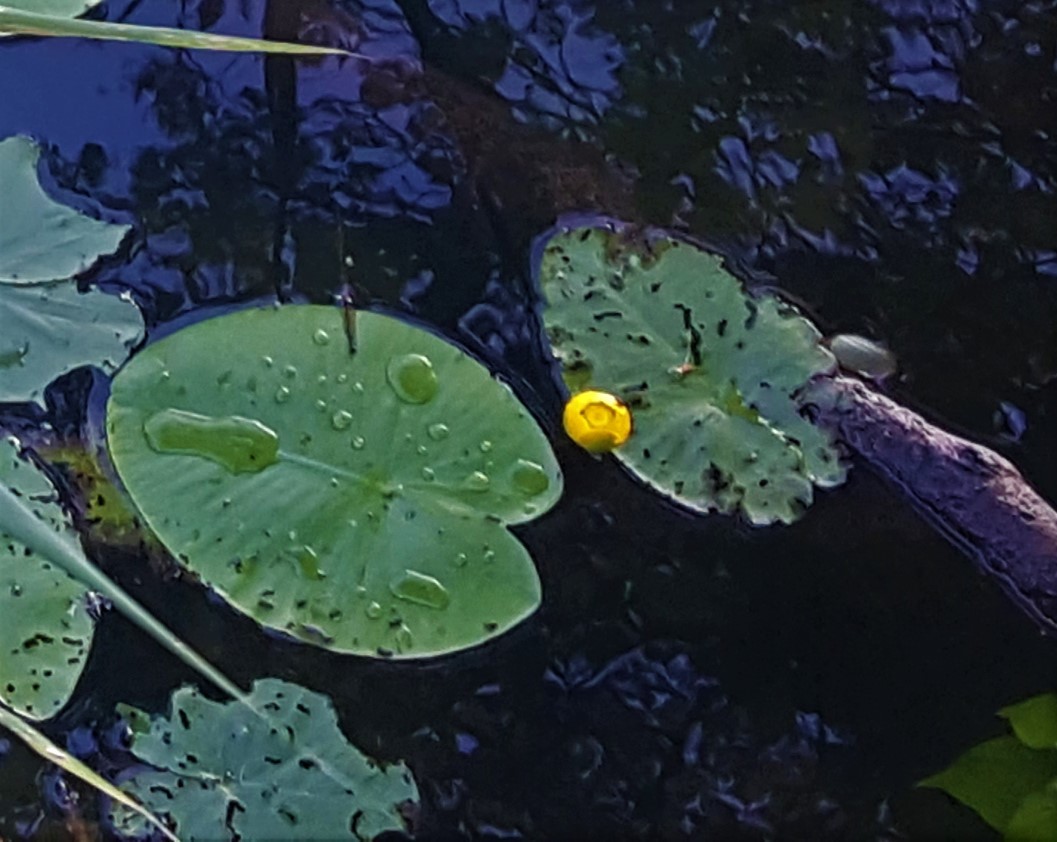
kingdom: Plantae
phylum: Tracheophyta
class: Magnoliopsida
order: Nymphaeales
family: Nymphaeaceae
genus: Nuphar
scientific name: Nuphar lutea
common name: Yellow water-lily
